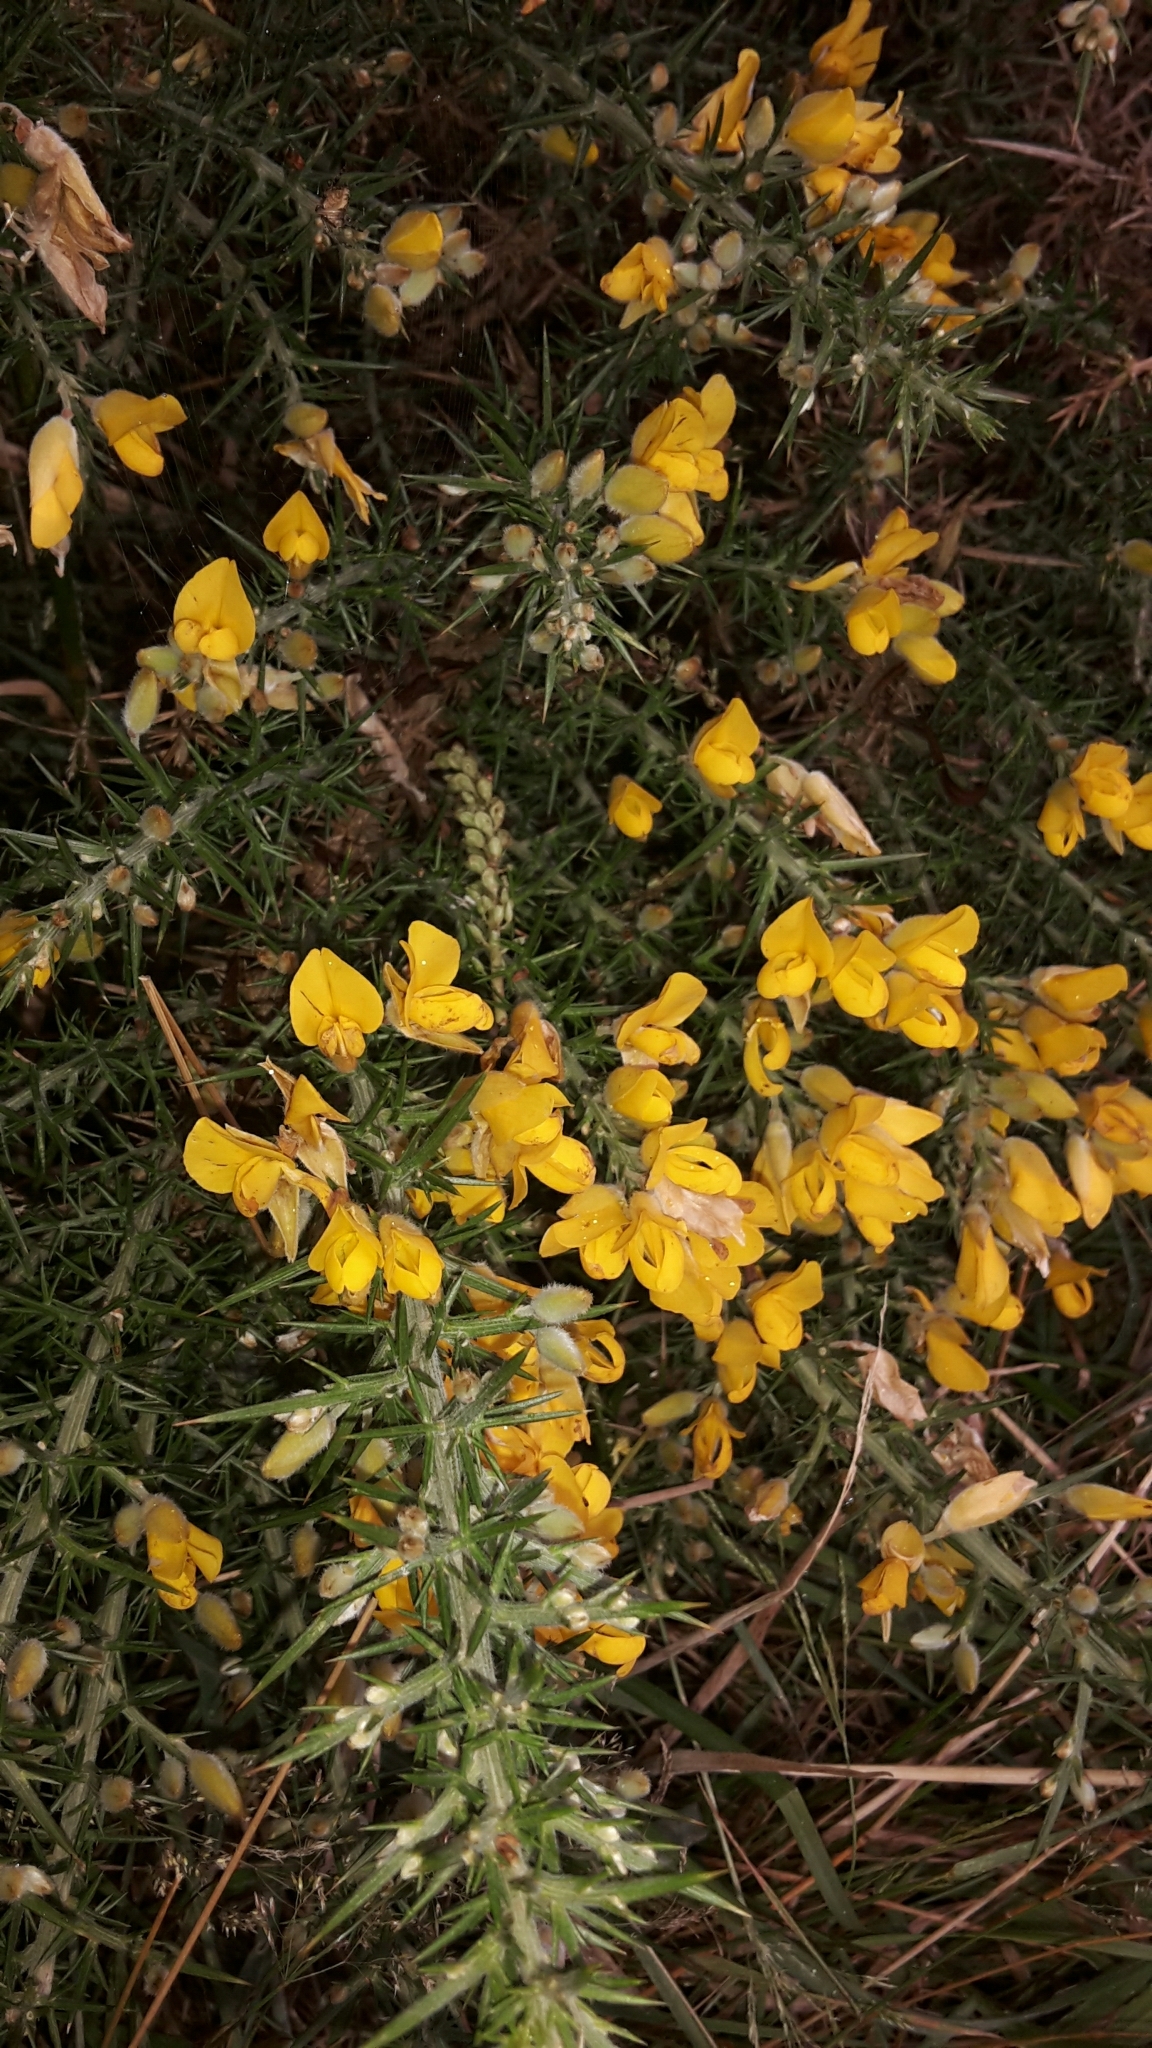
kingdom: Plantae
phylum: Tracheophyta
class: Magnoliopsida
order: Fabales
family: Fabaceae
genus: Ulex
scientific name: Ulex europaeus
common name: Common gorse
